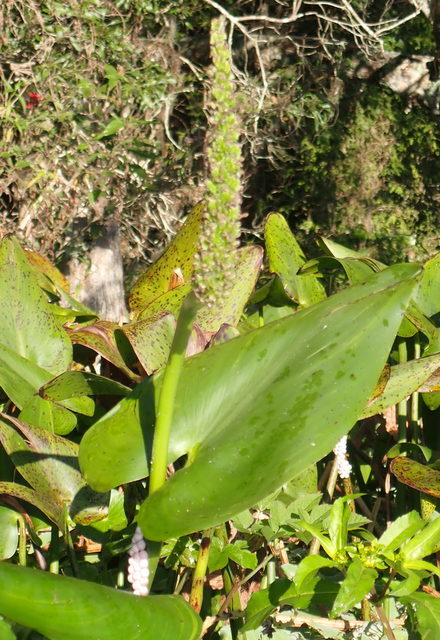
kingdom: Plantae
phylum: Tracheophyta
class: Liliopsida
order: Commelinales
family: Pontederiaceae
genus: Pontederia
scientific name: Pontederia cordata
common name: Pickerelweed
